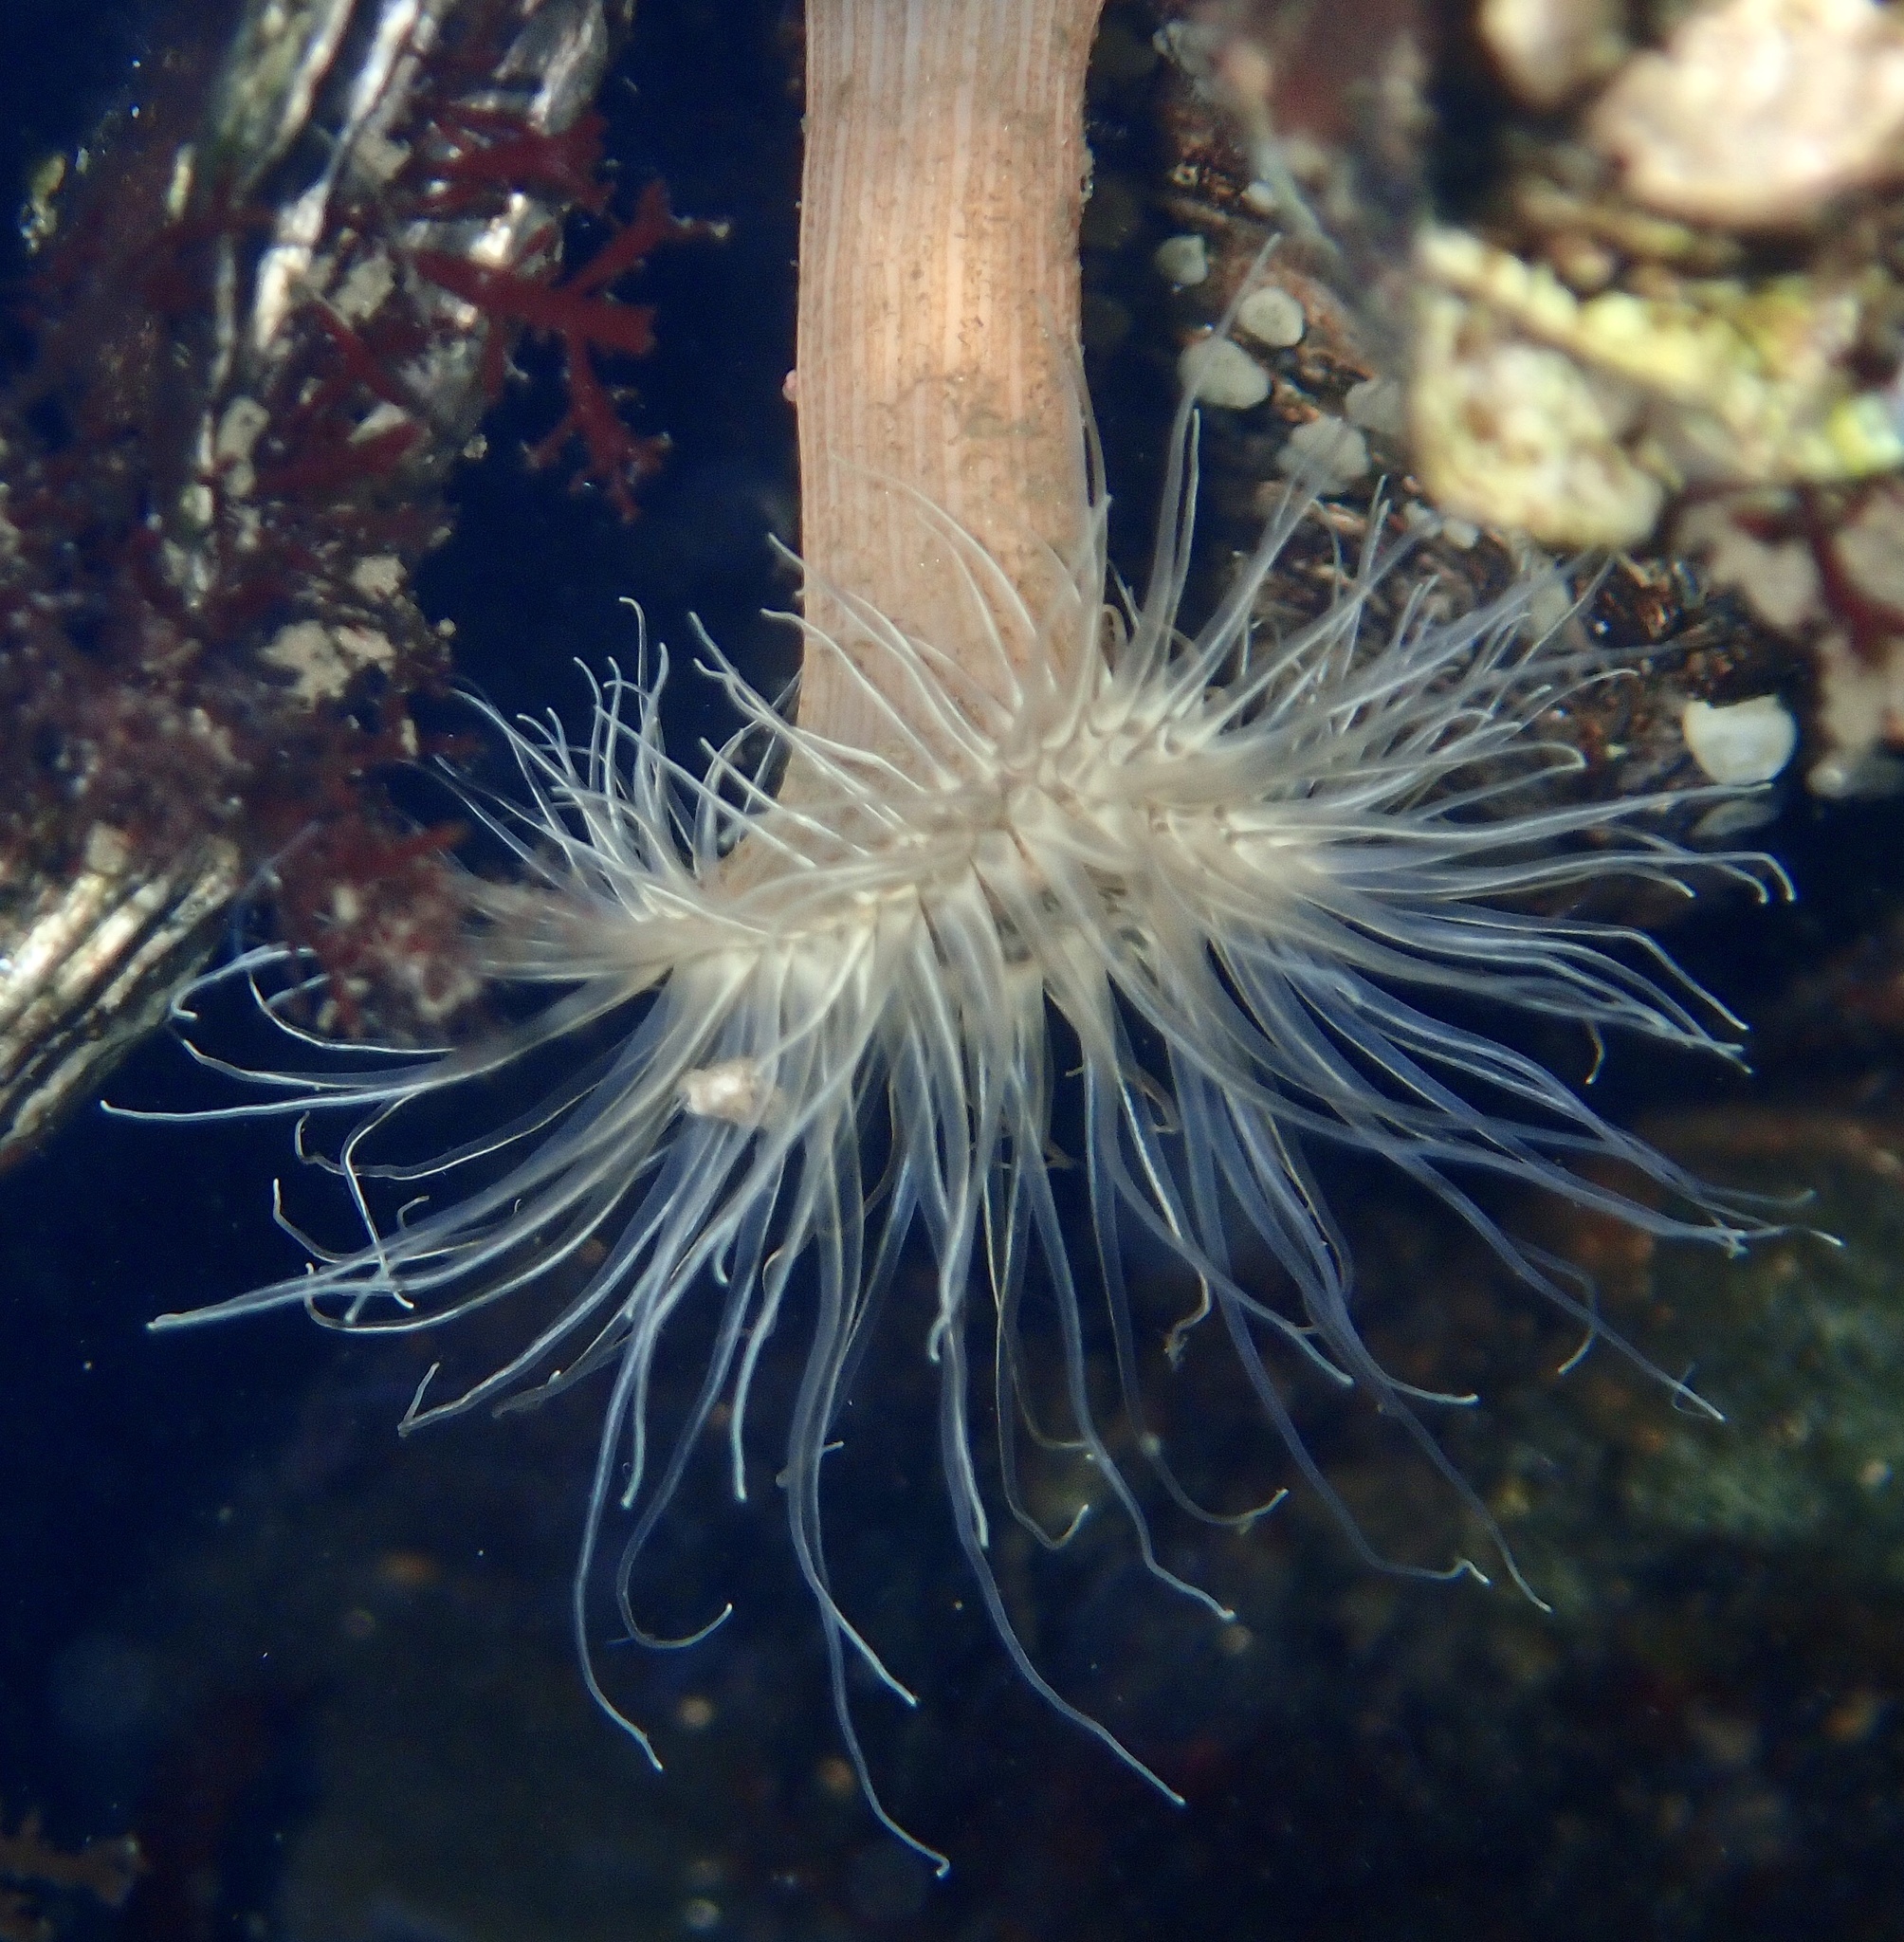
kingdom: Animalia
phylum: Cnidaria
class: Anthozoa
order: Actiniaria
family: Sagartiidae
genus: Sagartia
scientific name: Sagartia undata
